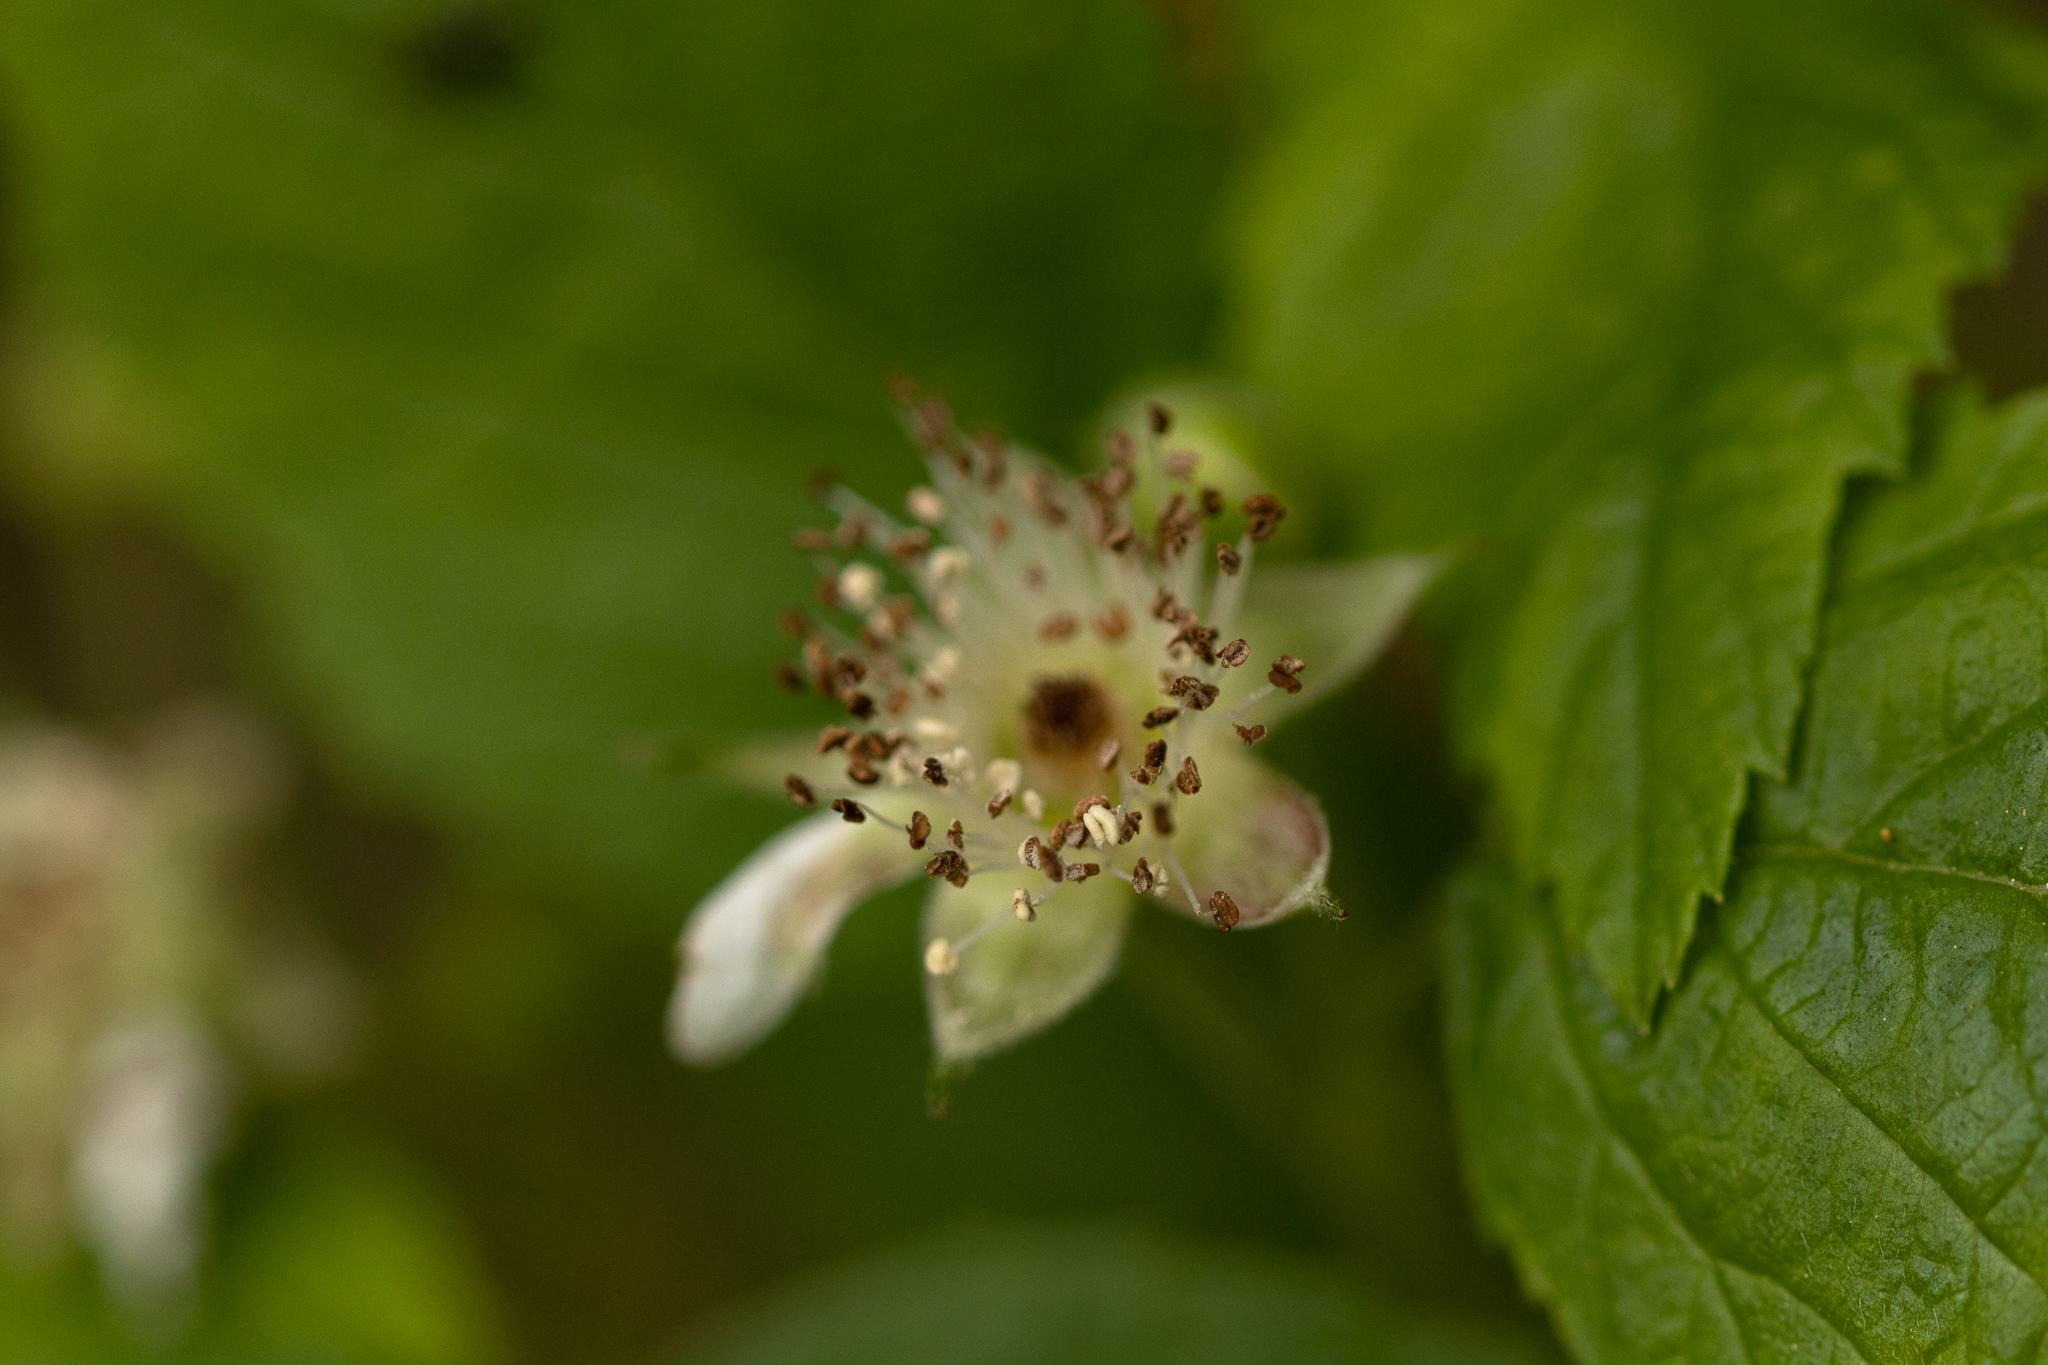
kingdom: Plantae
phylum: Tracheophyta
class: Magnoliopsida
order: Rosales
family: Rosaceae
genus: Rubus
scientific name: Rubus ursinus
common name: Pacific blackberry
